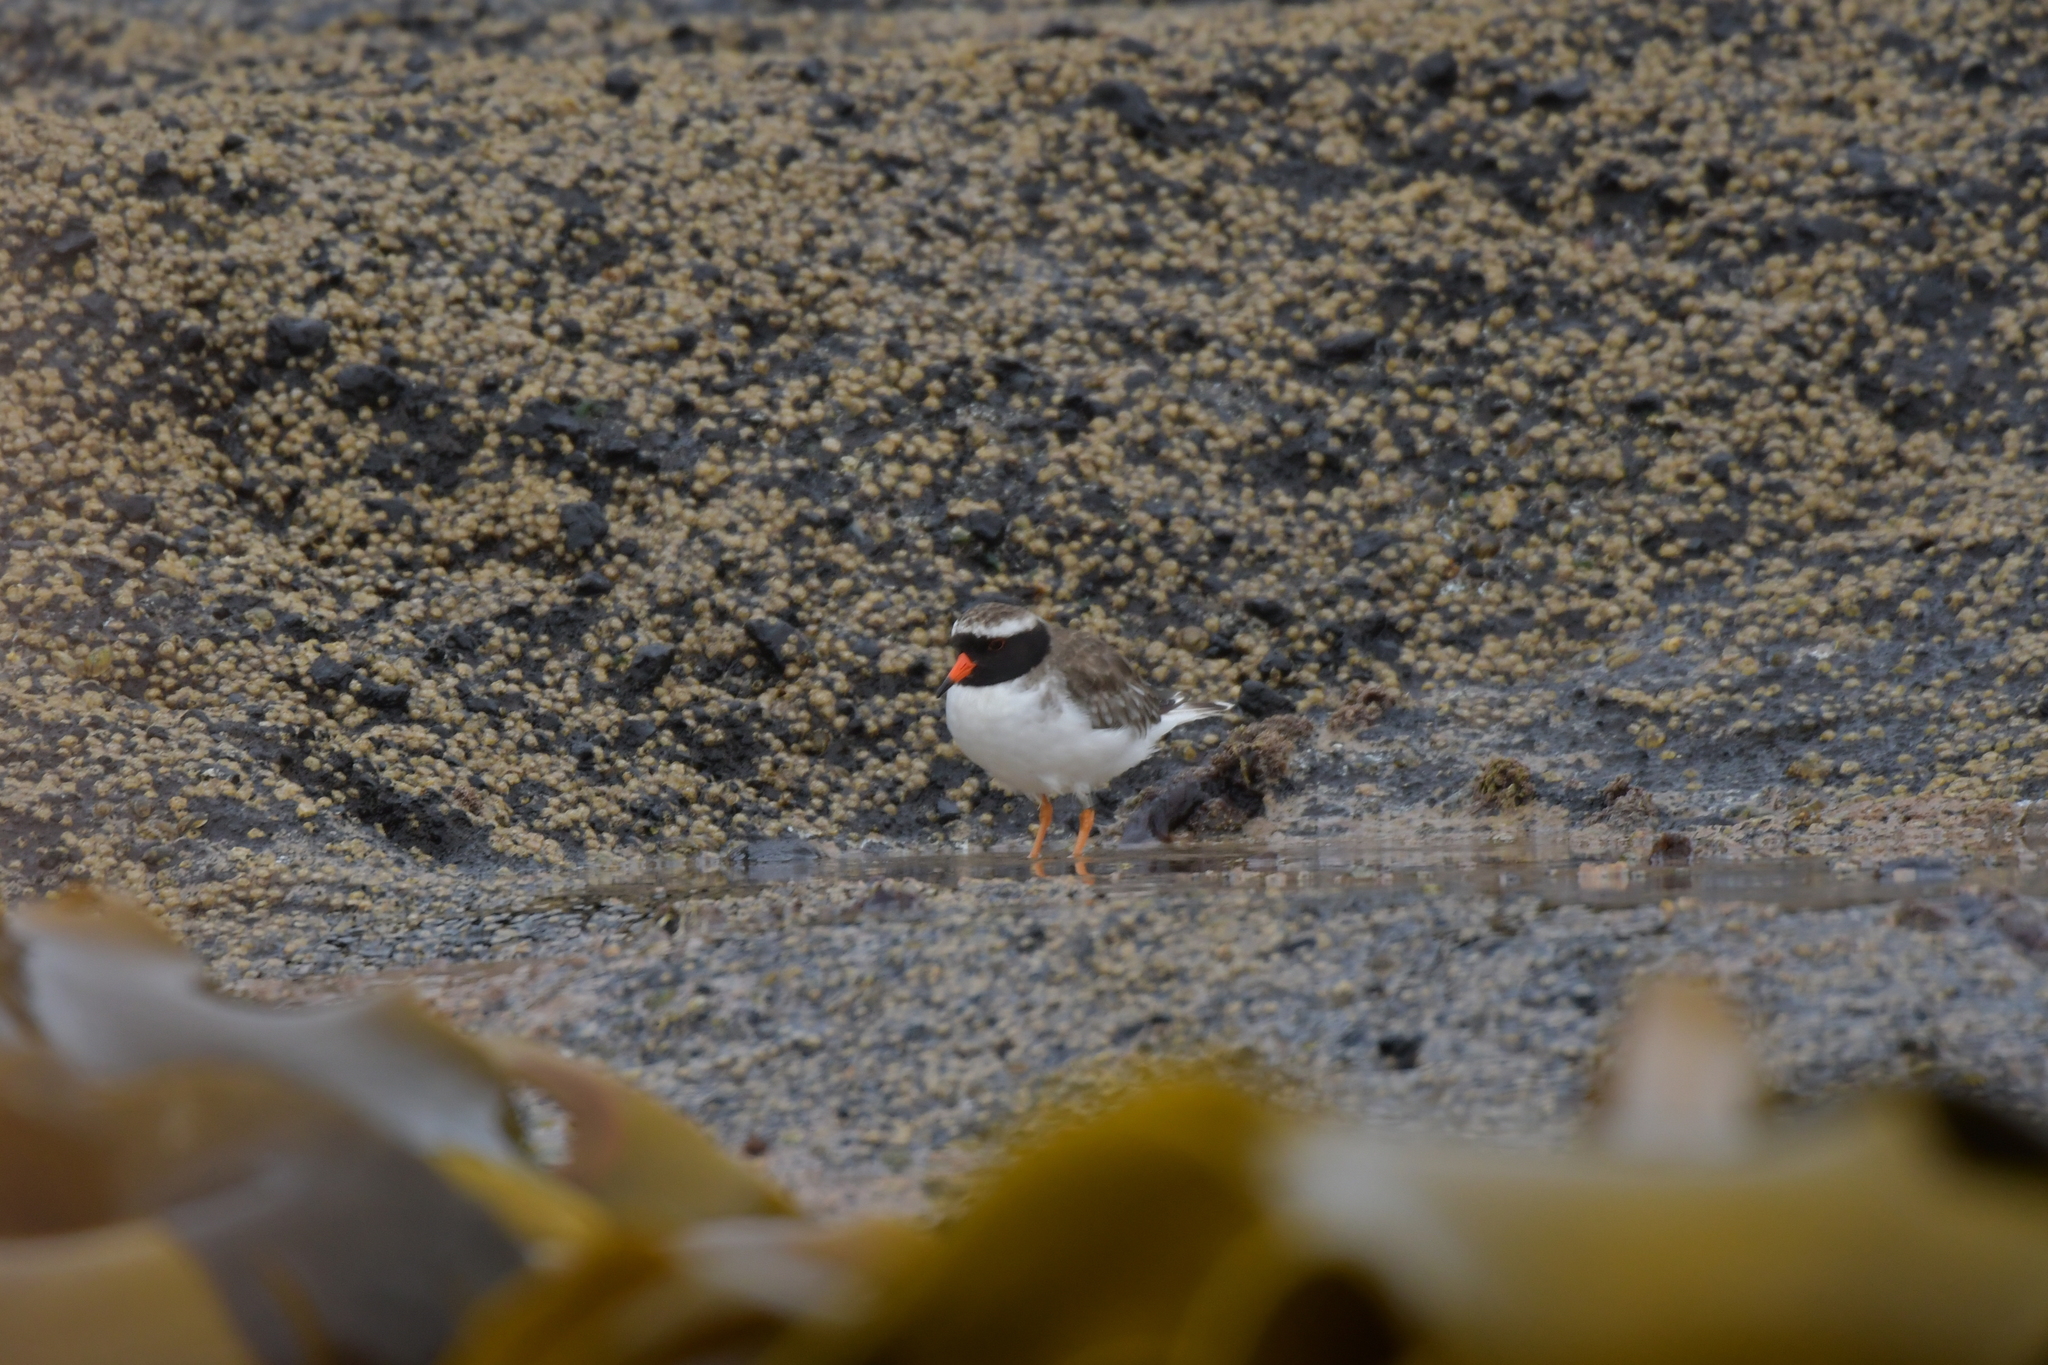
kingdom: Animalia
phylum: Chordata
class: Aves
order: Charadriiformes
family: Charadriidae
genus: Thinornis
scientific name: Thinornis novaeseelandiae
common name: Shore dotterel
